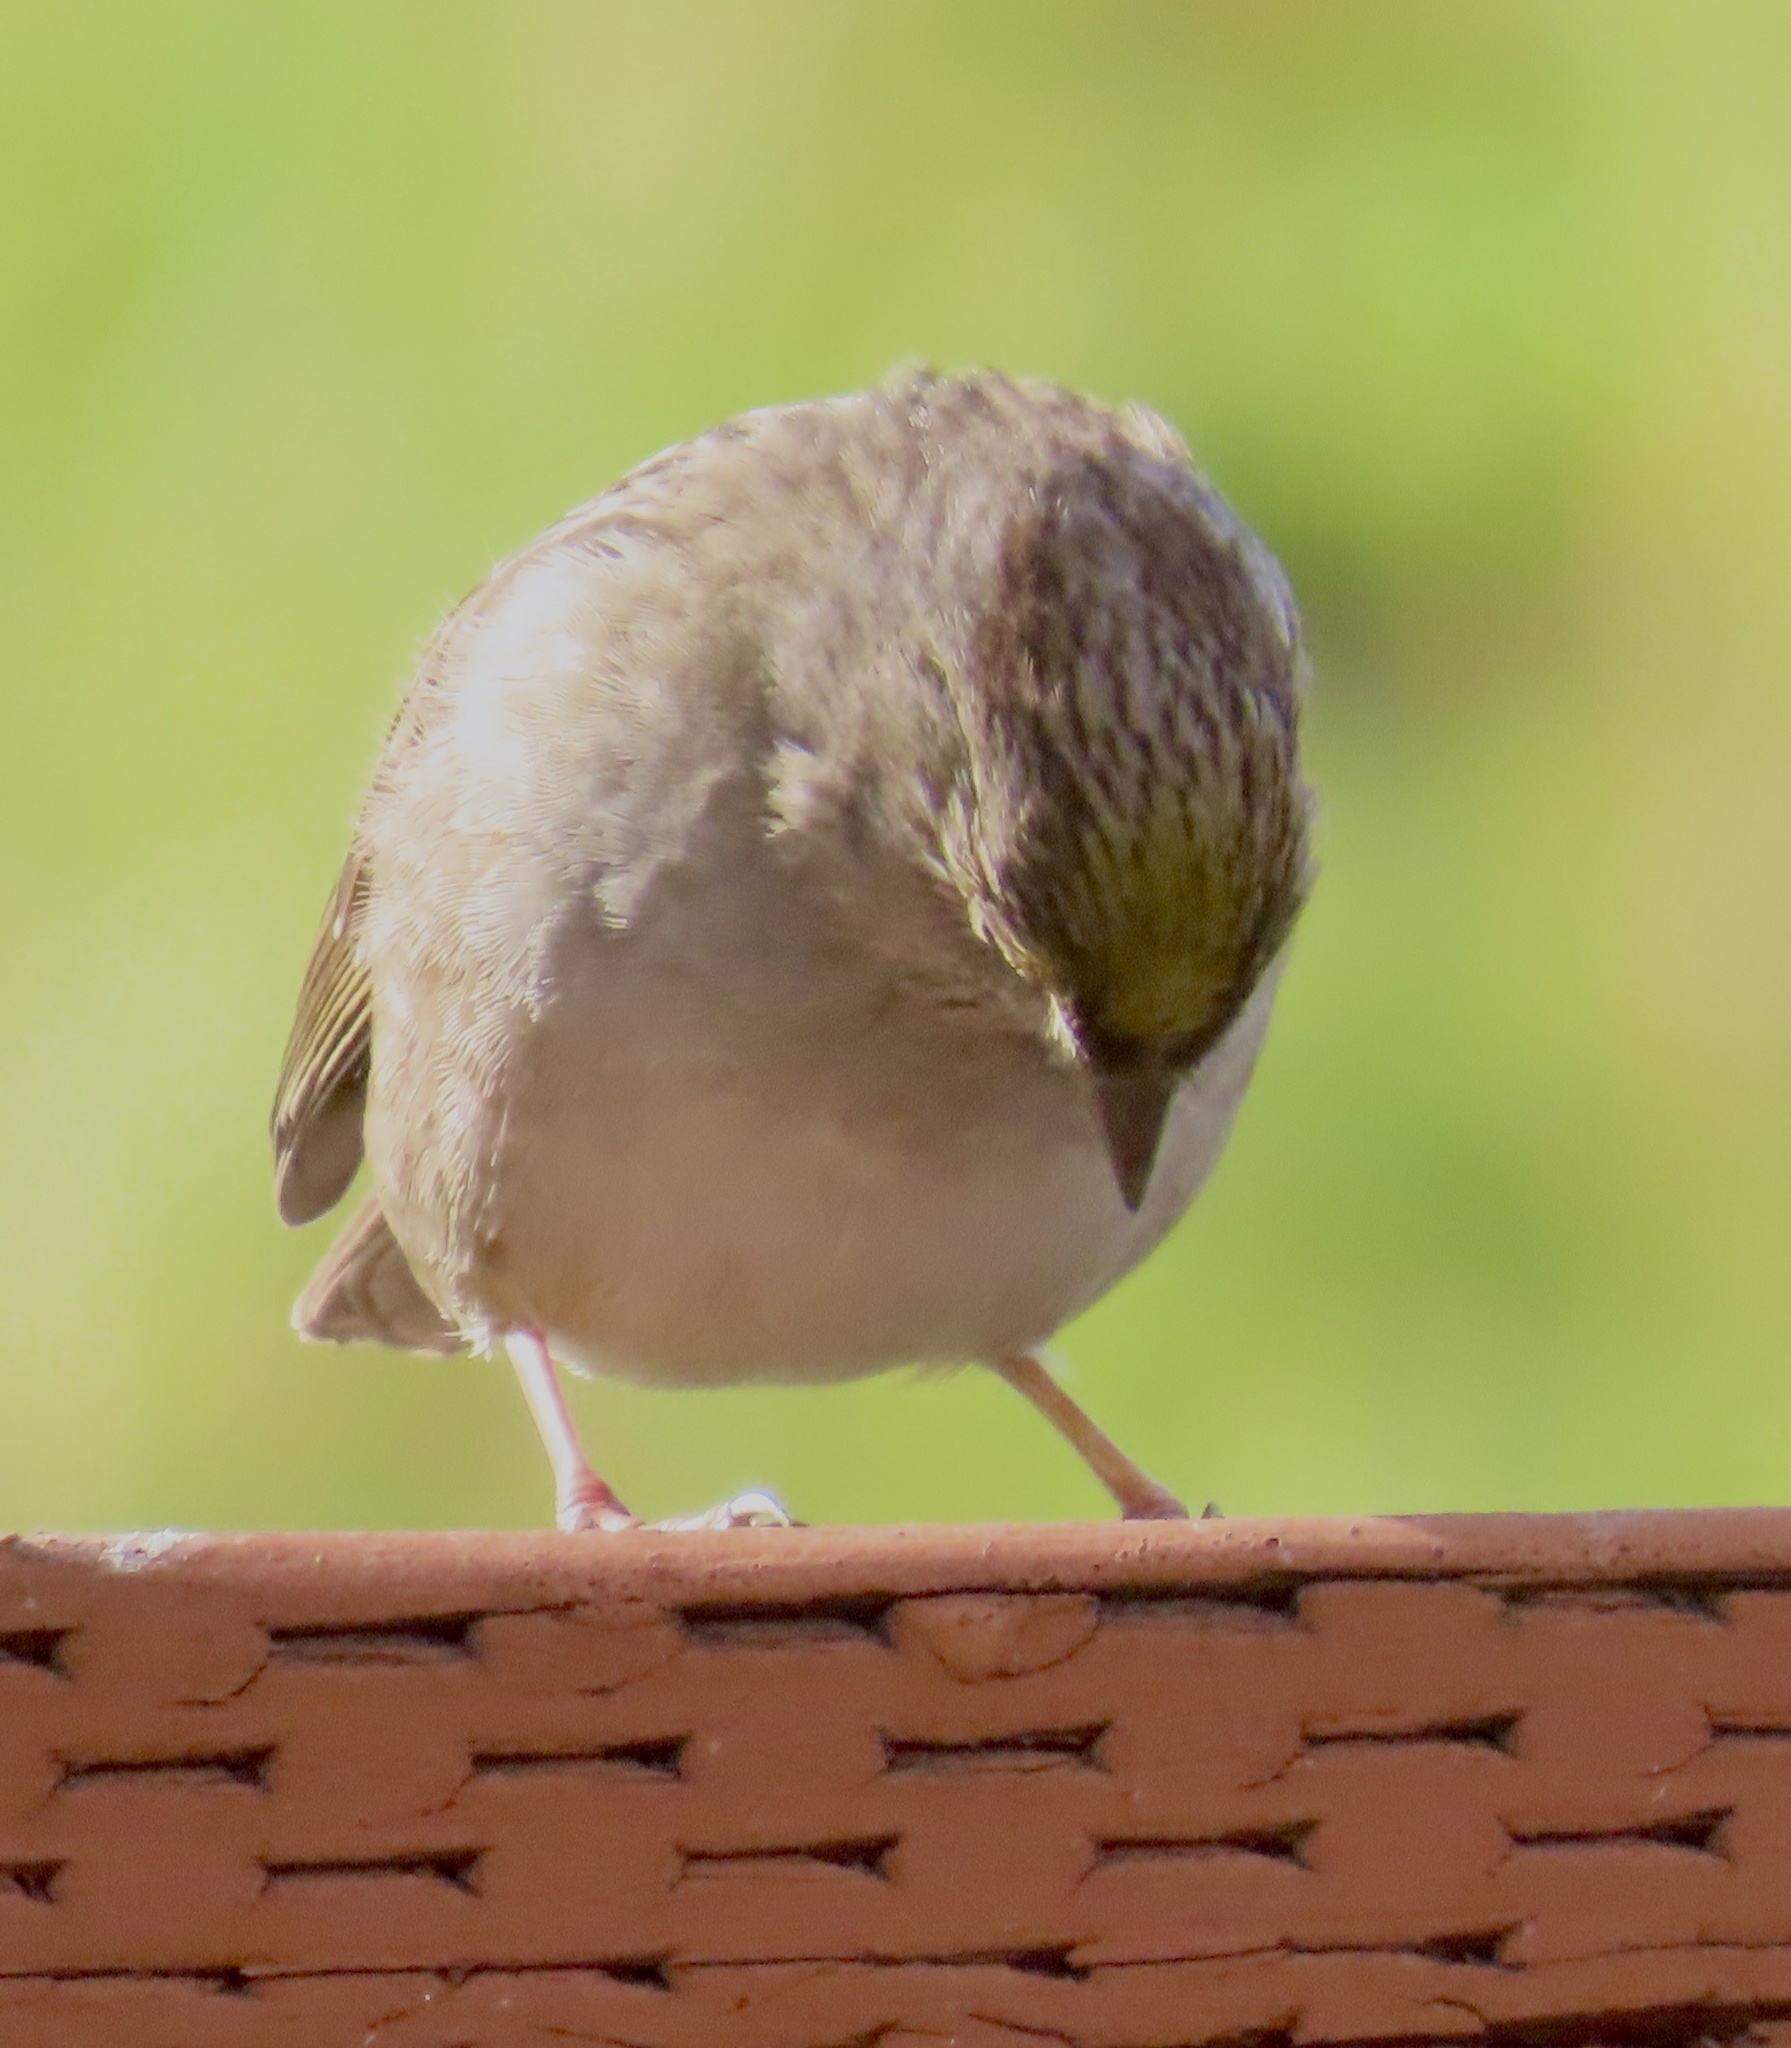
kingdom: Animalia
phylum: Chordata
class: Aves
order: Passeriformes
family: Passerellidae
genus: Zonotrichia
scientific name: Zonotrichia atricapilla
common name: Golden-crowned sparrow
